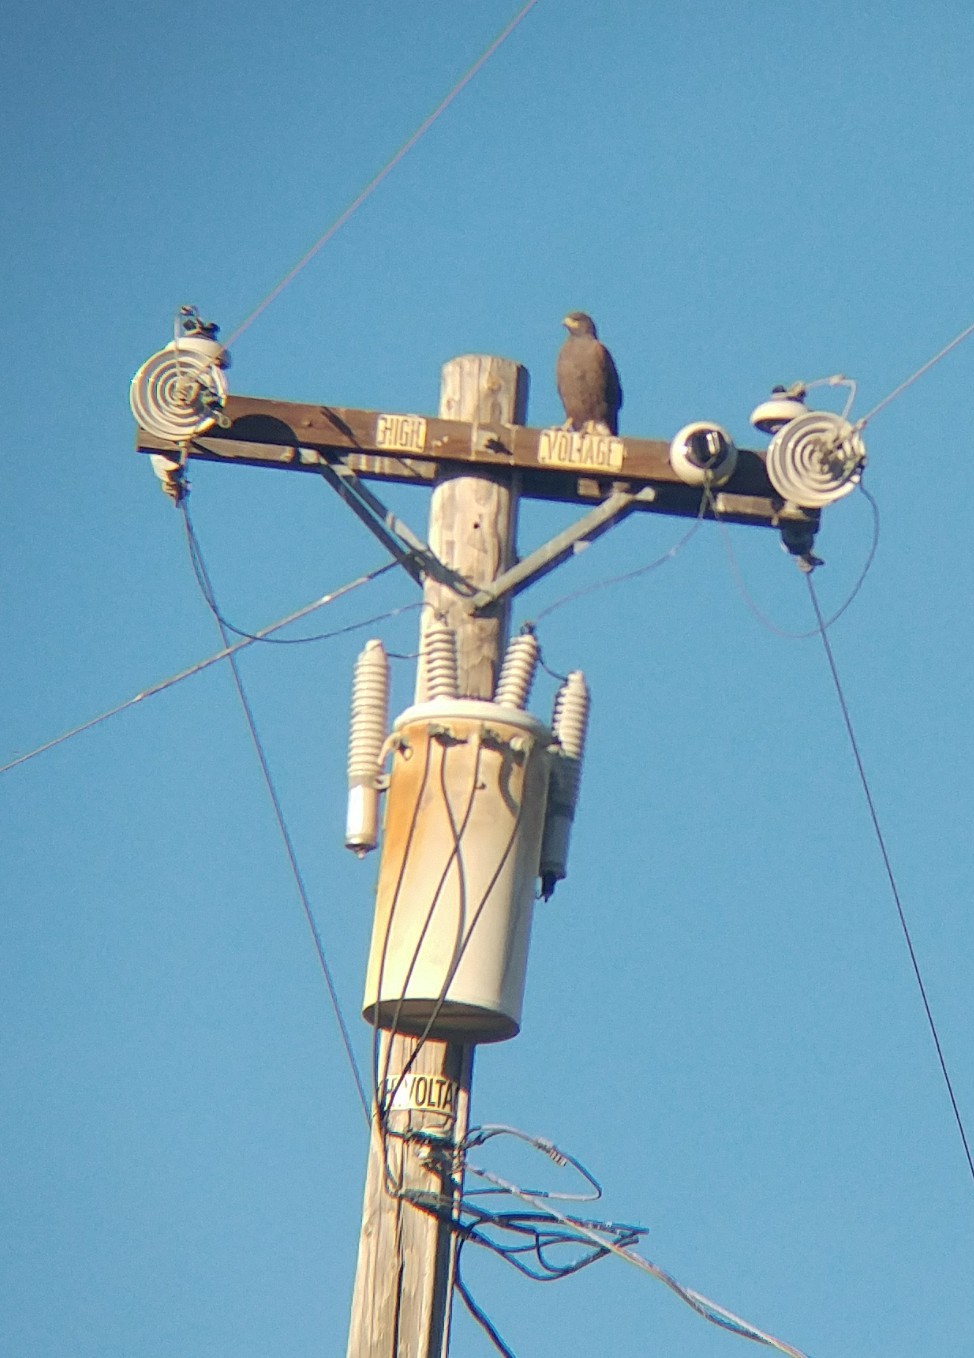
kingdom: Animalia
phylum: Chordata
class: Aves
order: Accipitriformes
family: Accipitridae
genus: Parabuteo
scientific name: Parabuteo unicinctus
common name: Harris's hawk
